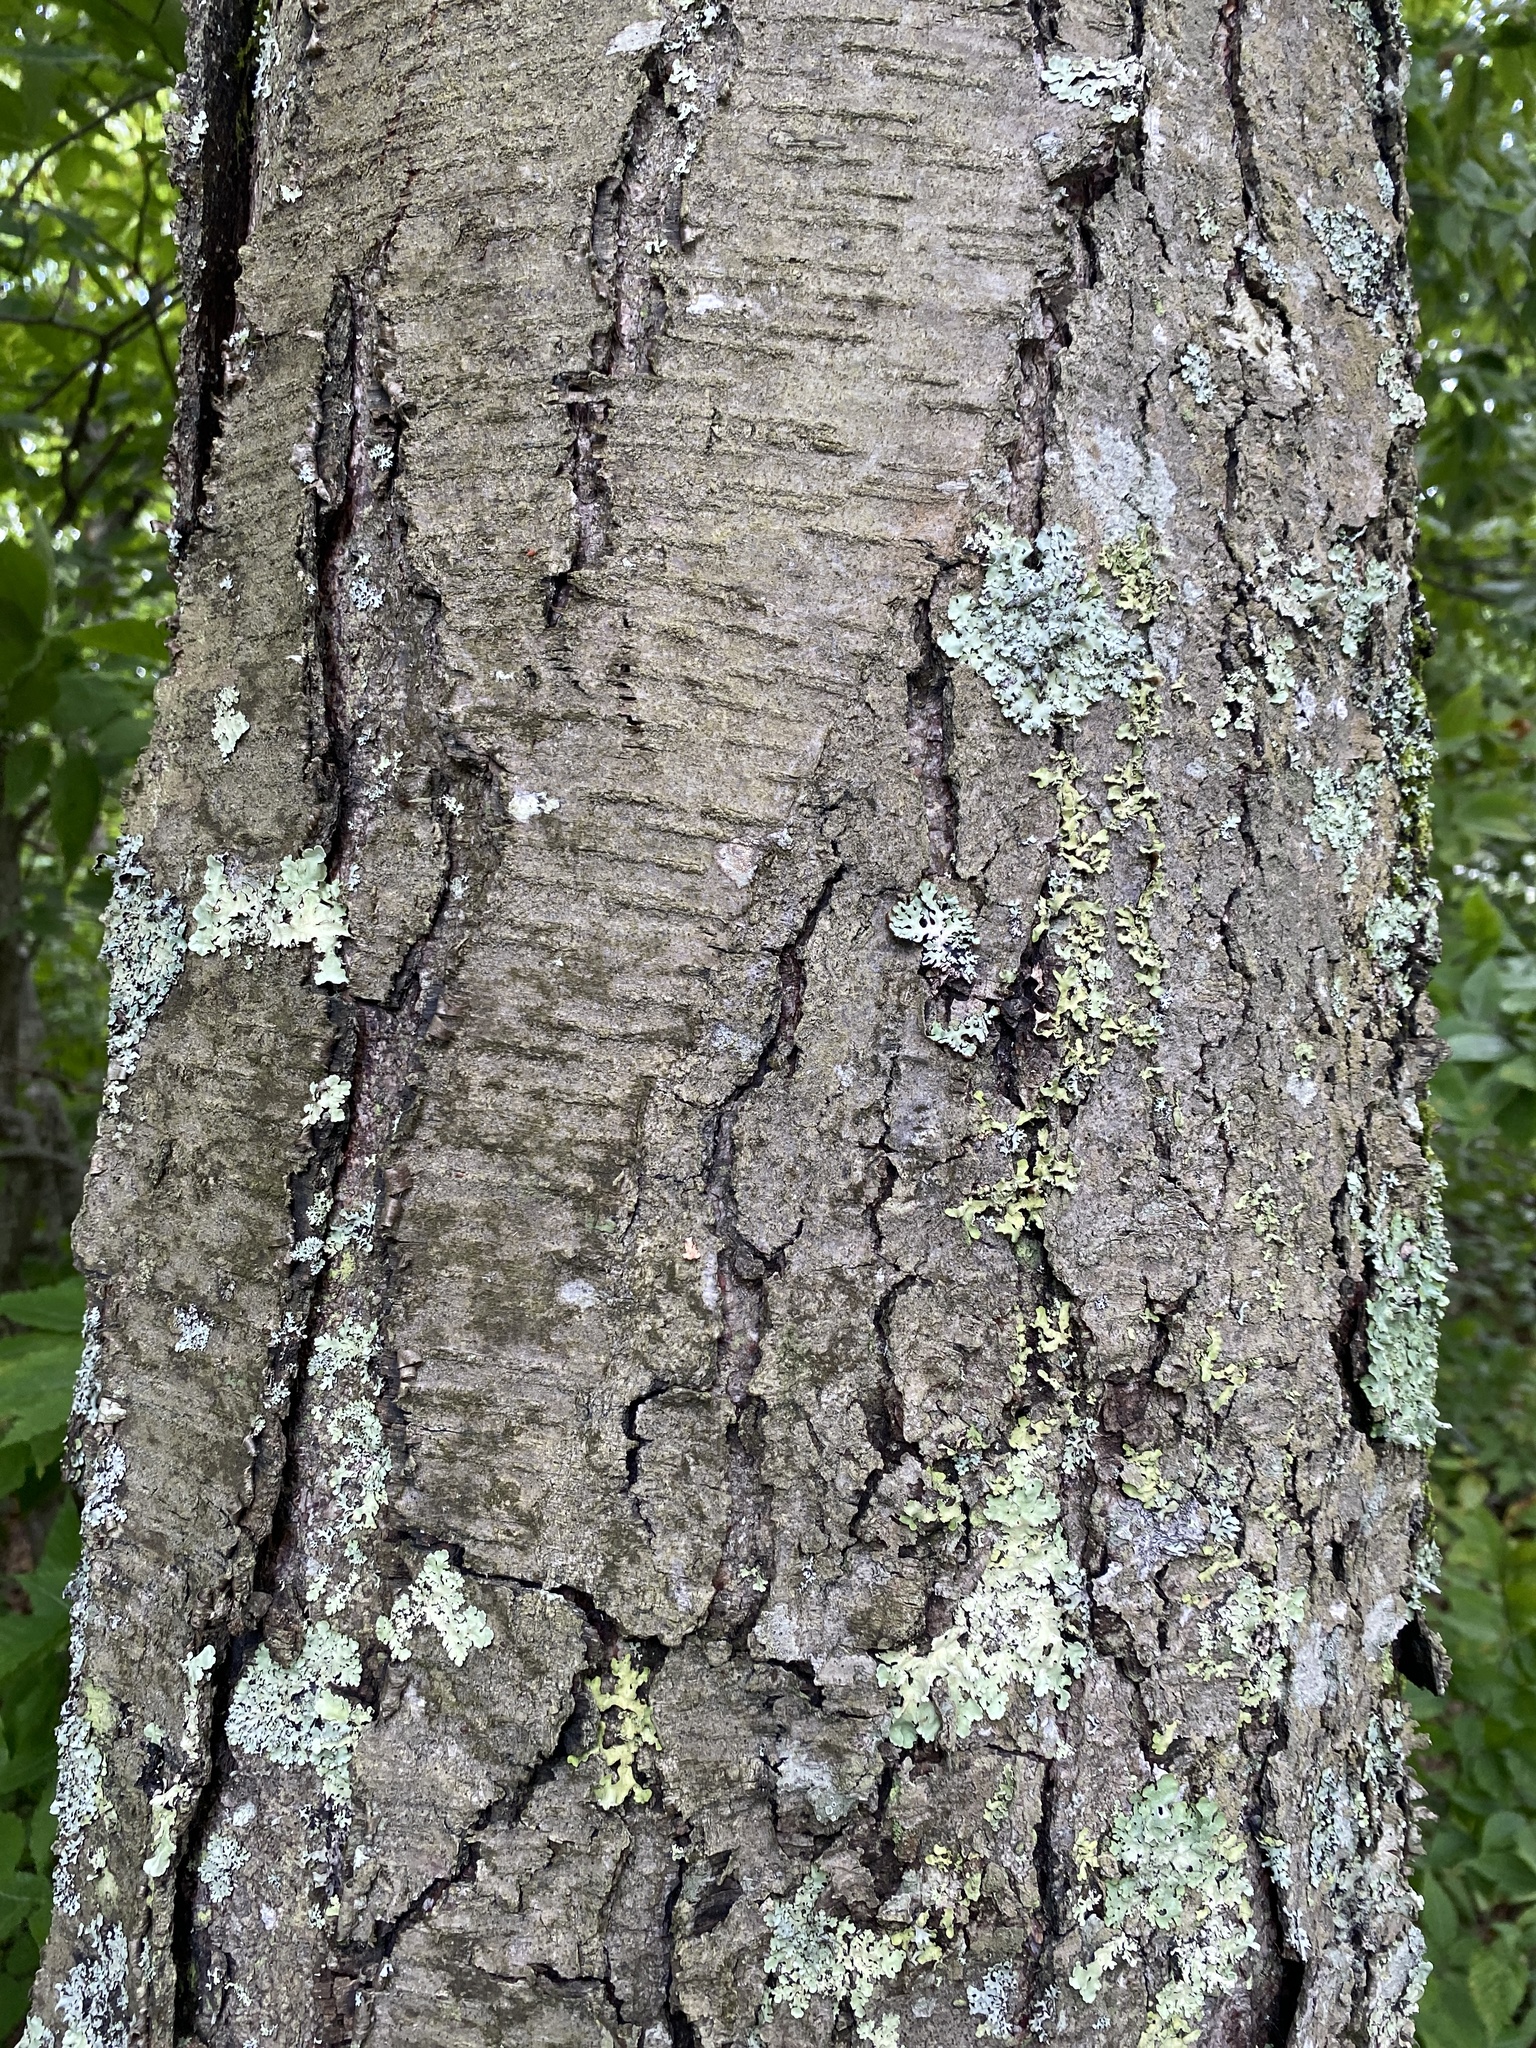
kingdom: Plantae
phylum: Tracheophyta
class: Magnoliopsida
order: Fagales
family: Betulaceae
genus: Betula
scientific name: Betula lenta
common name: Black birch
